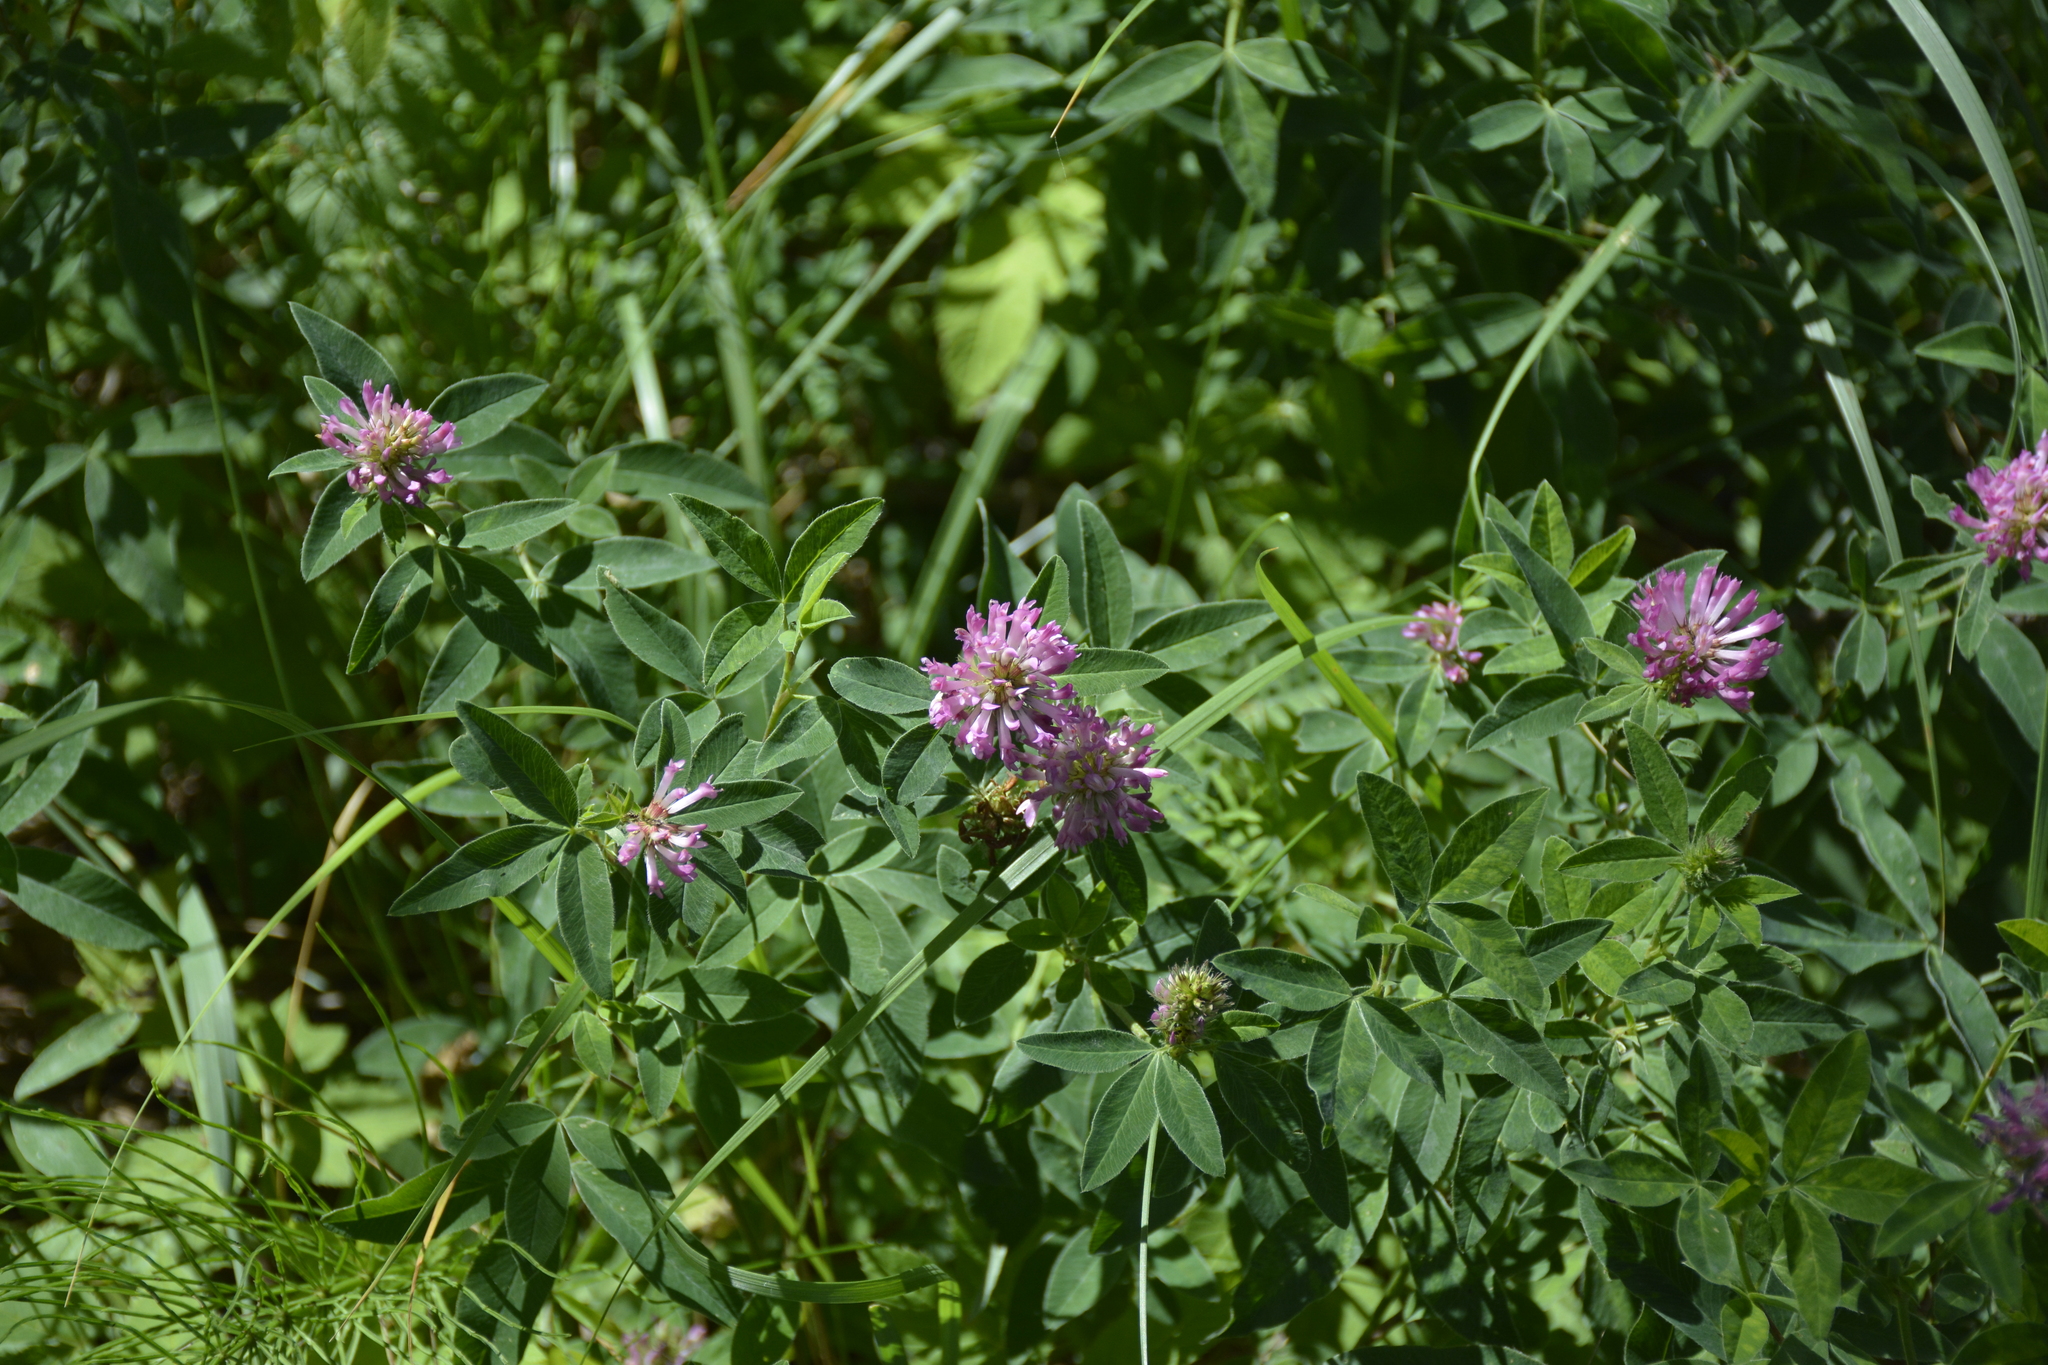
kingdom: Plantae
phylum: Tracheophyta
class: Magnoliopsida
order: Fabales
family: Fabaceae
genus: Trifolium
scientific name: Trifolium medium
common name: Zigzag clover
